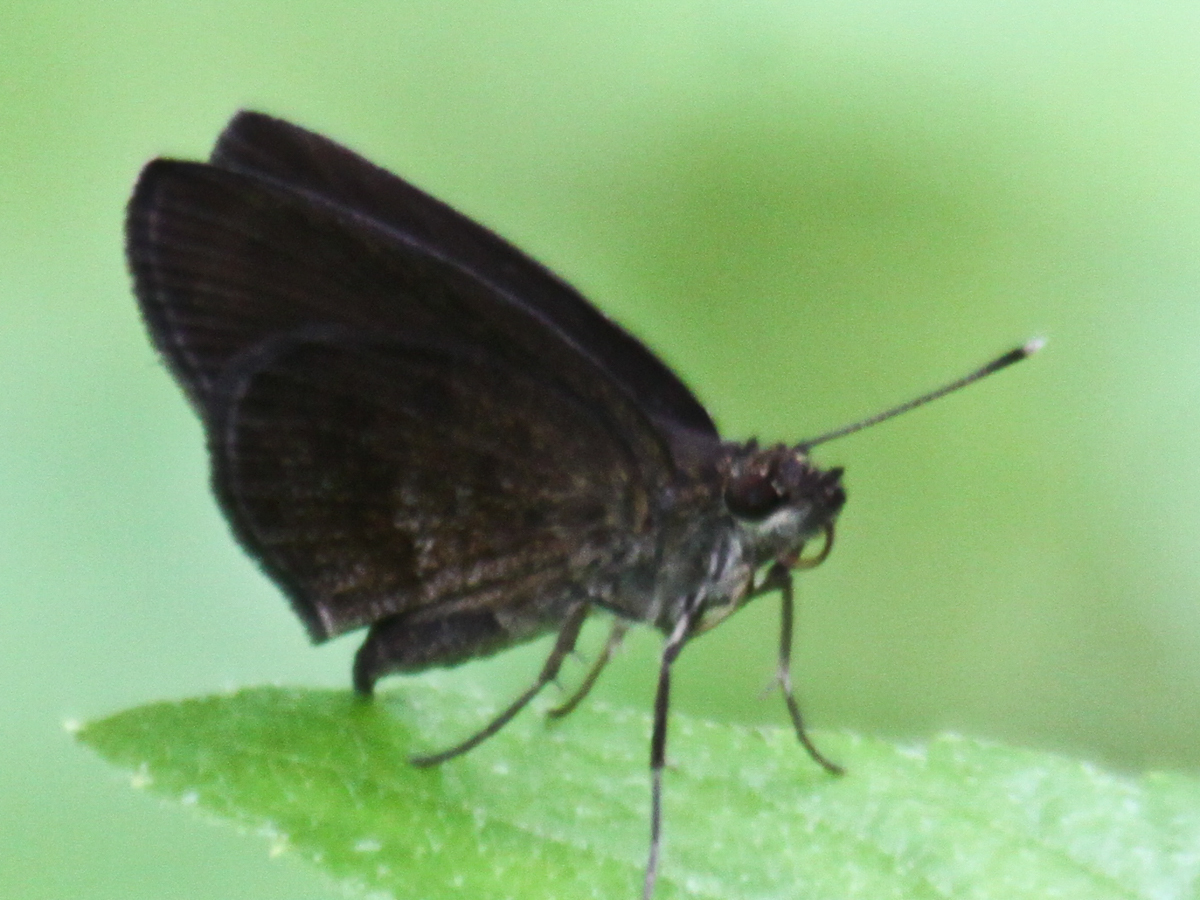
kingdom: Animalia
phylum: Arthropoda
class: Insecta
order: Lepidoptera
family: Hesperiidae
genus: Astictopterus
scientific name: Astictopterus jama
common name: Forest hopper
